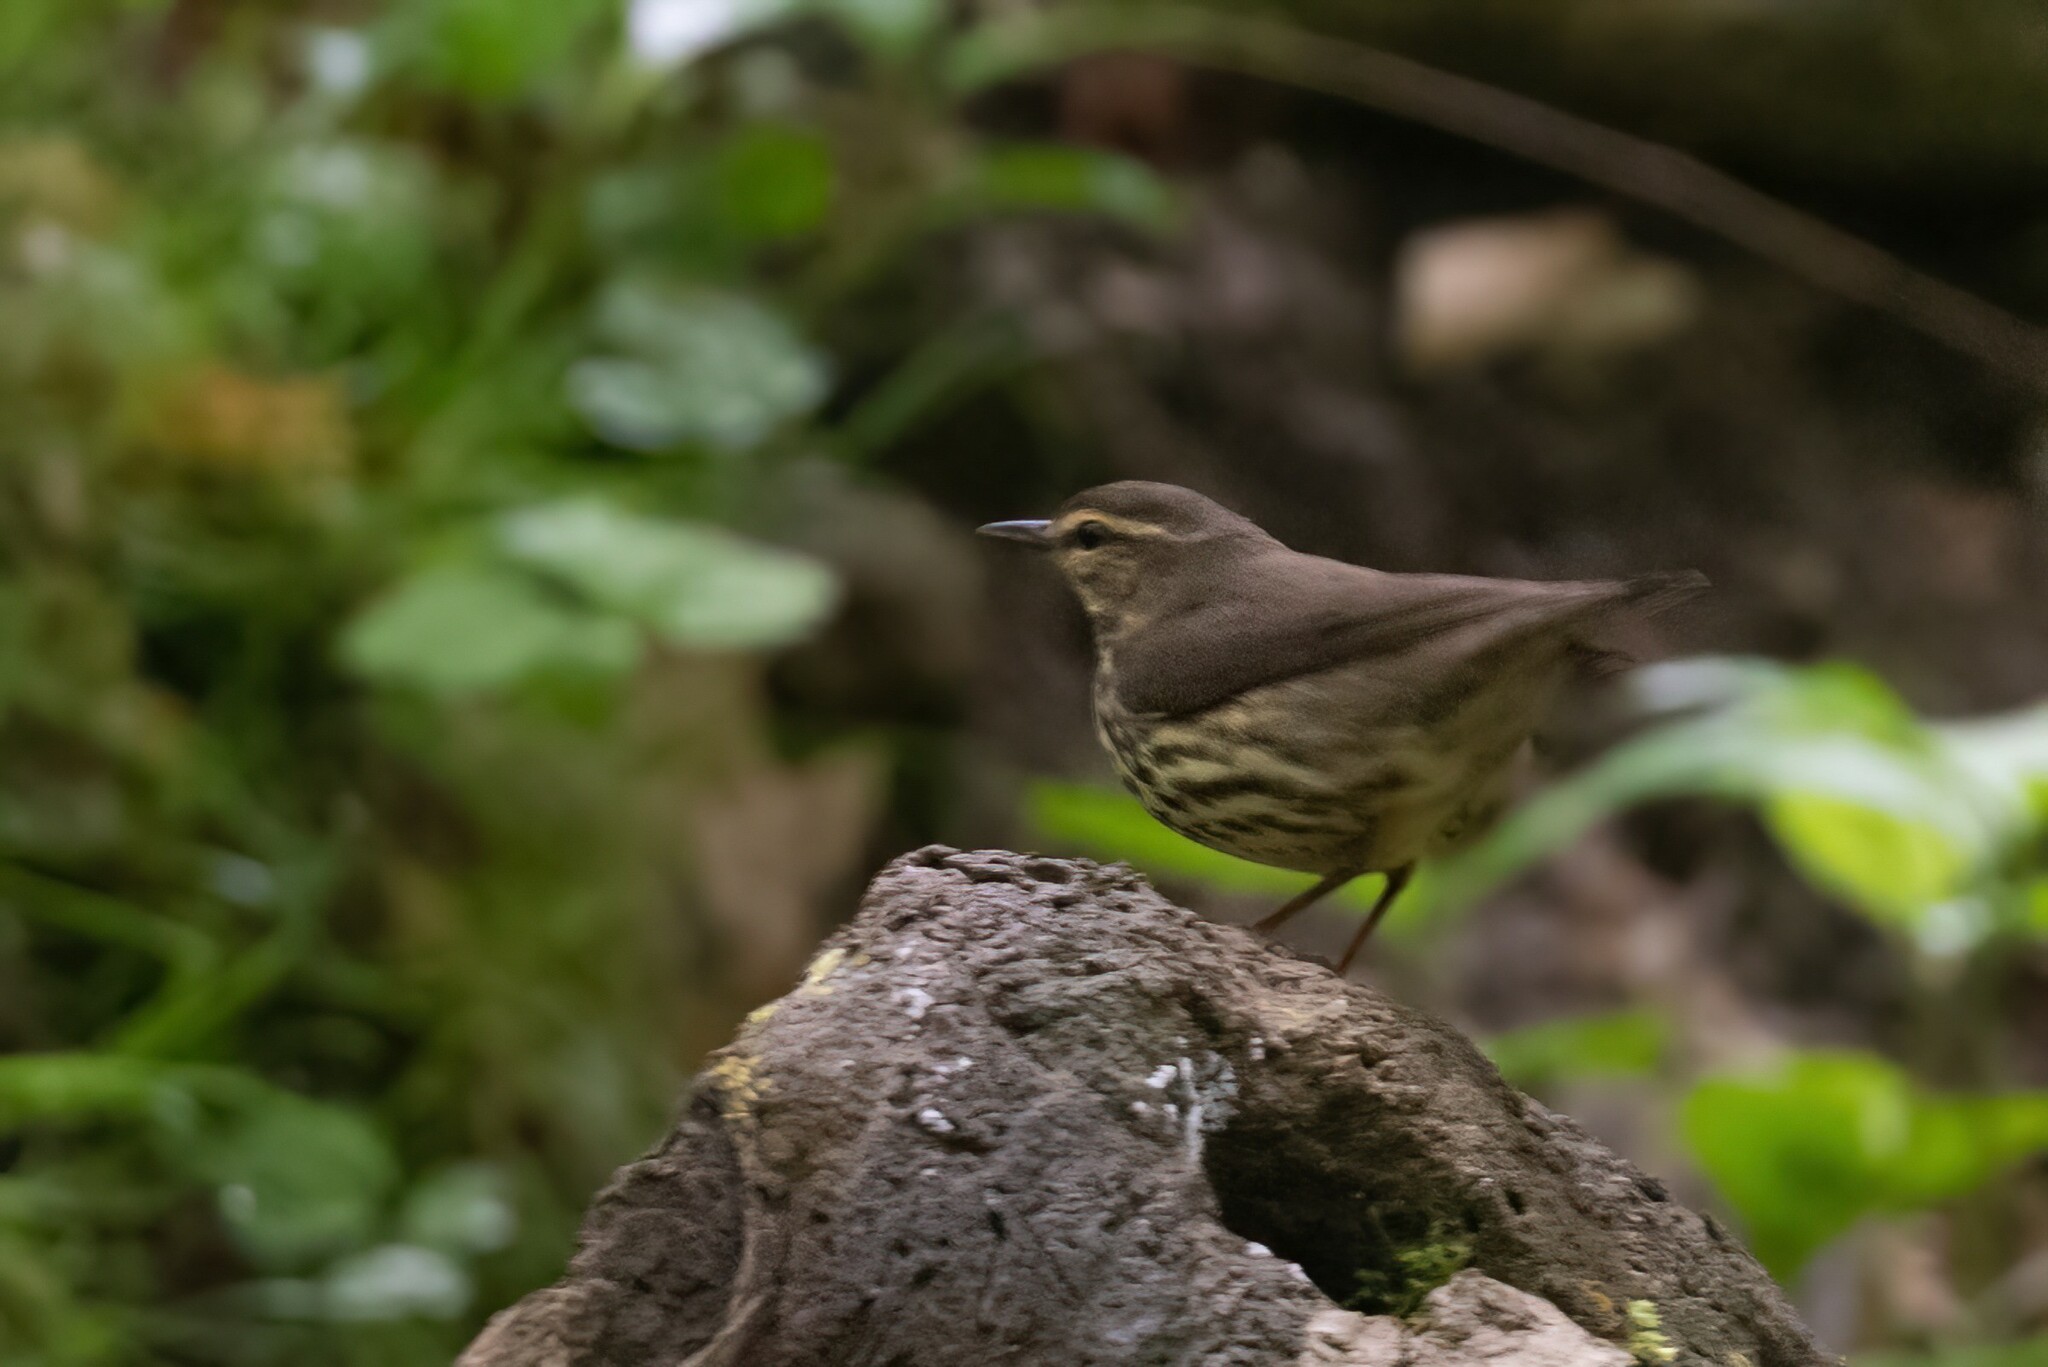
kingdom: Animalia
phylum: Chordata
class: Aves
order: Passeriformes
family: Parulidae
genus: Parkesia
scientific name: Parkesia noveboracensis
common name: Northern waterthrush
